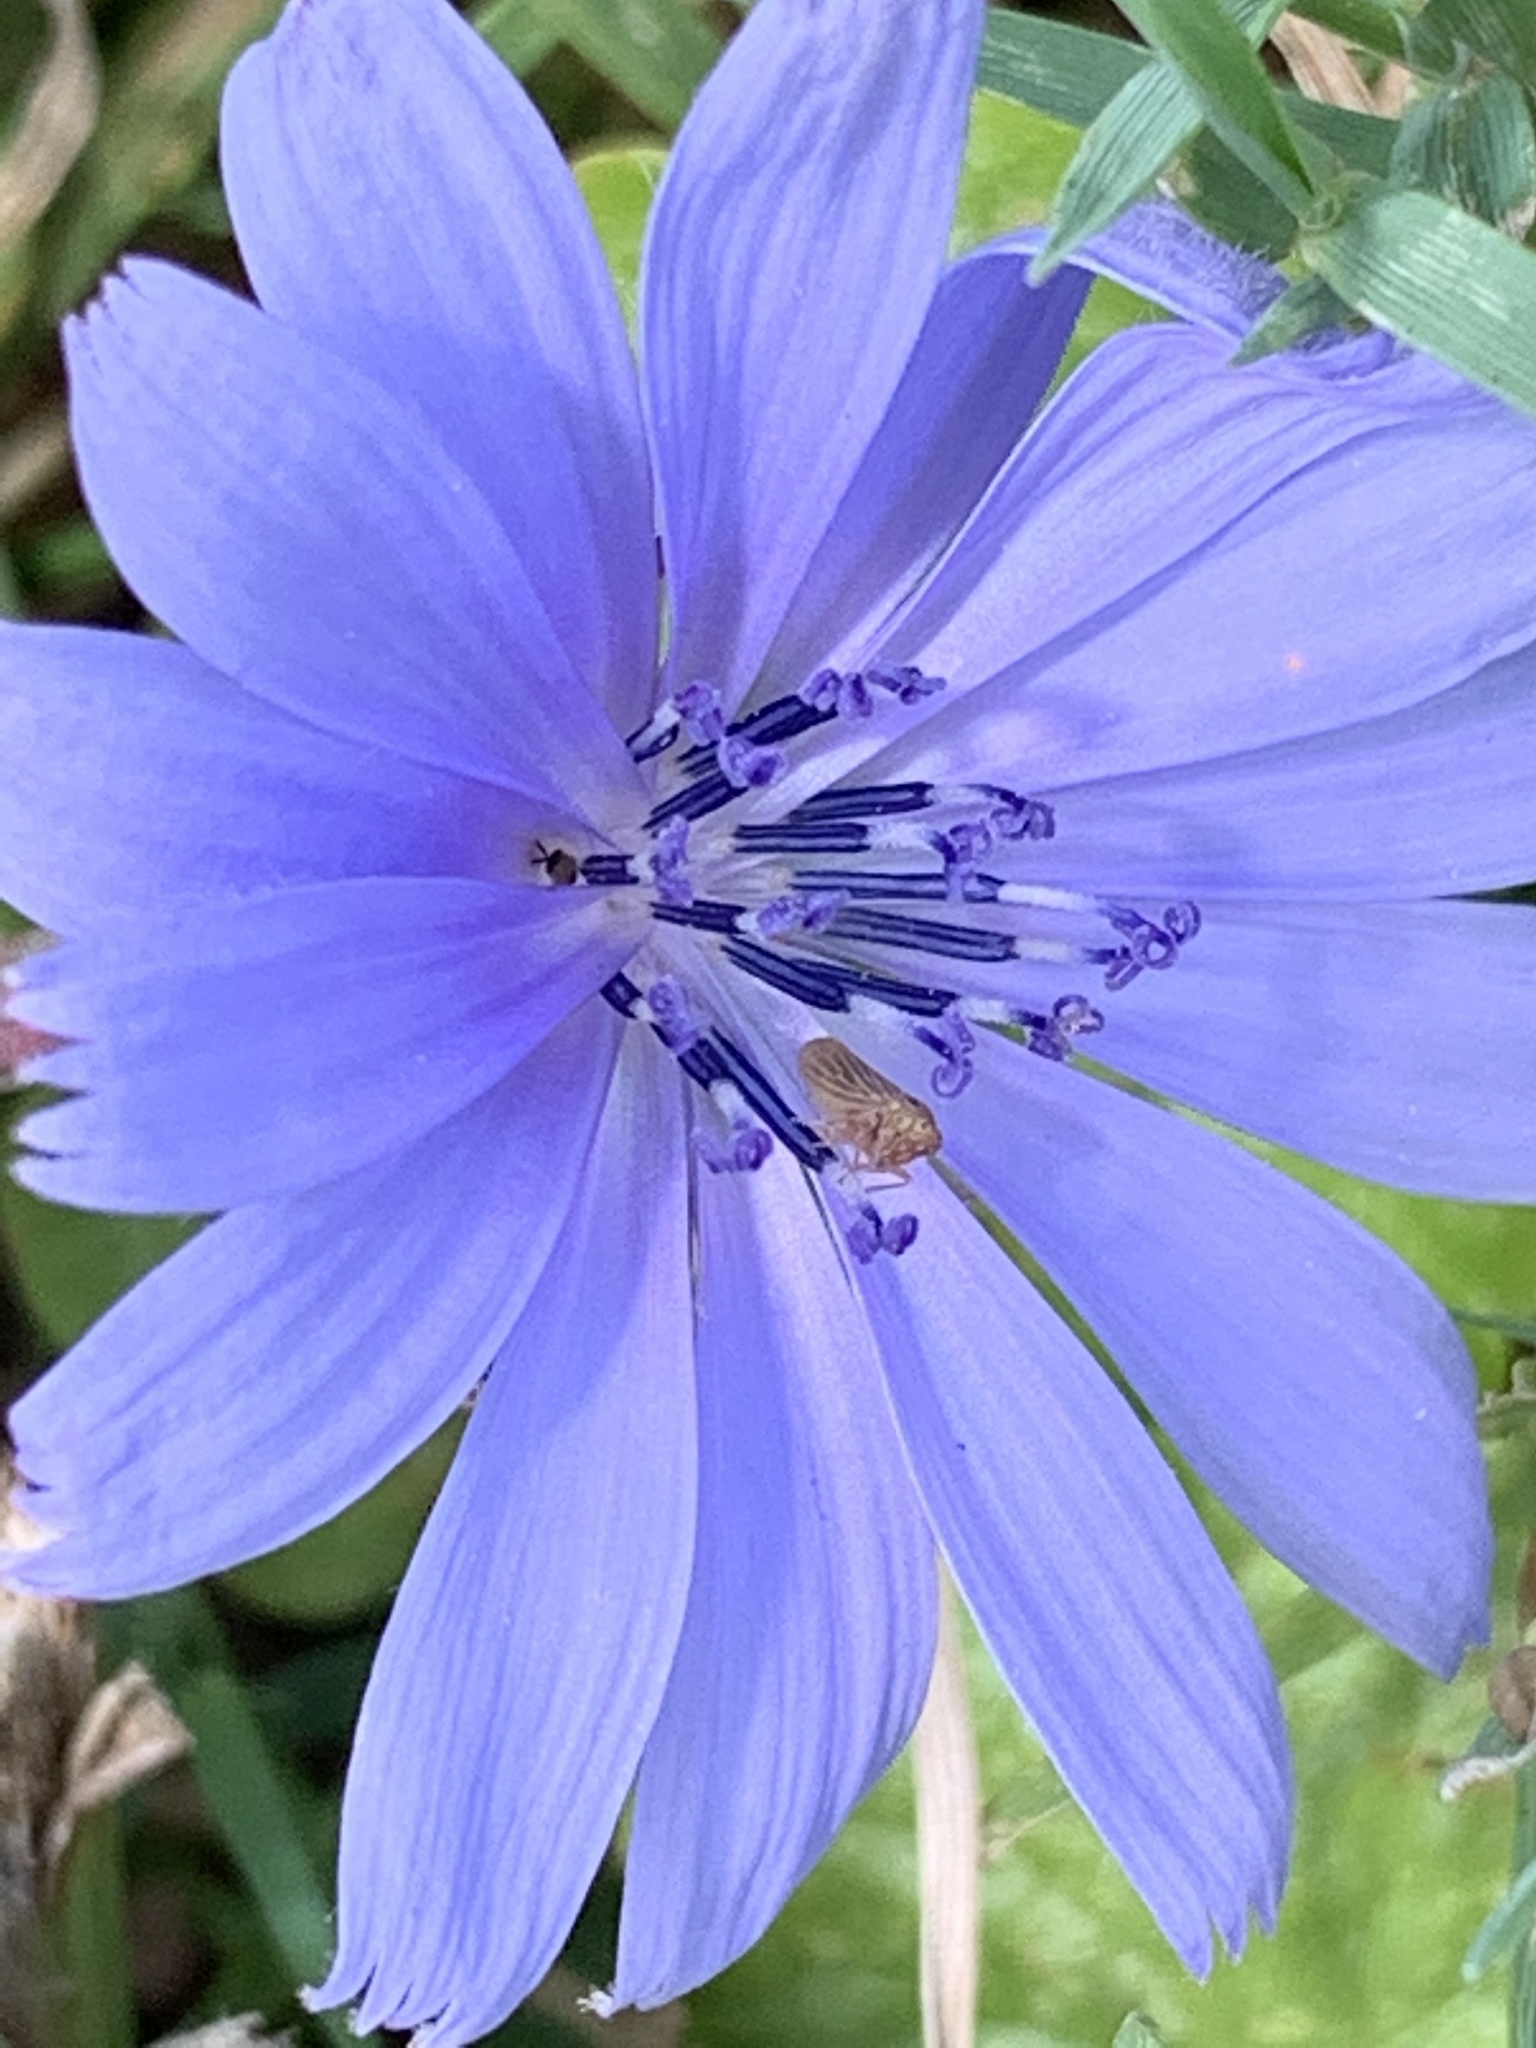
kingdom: Plantae
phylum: Tracheophyta
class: Magnoliopsida
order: Asterales
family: Asteraceae
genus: Cichorium
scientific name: Cichorium intybus
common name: Chicory
